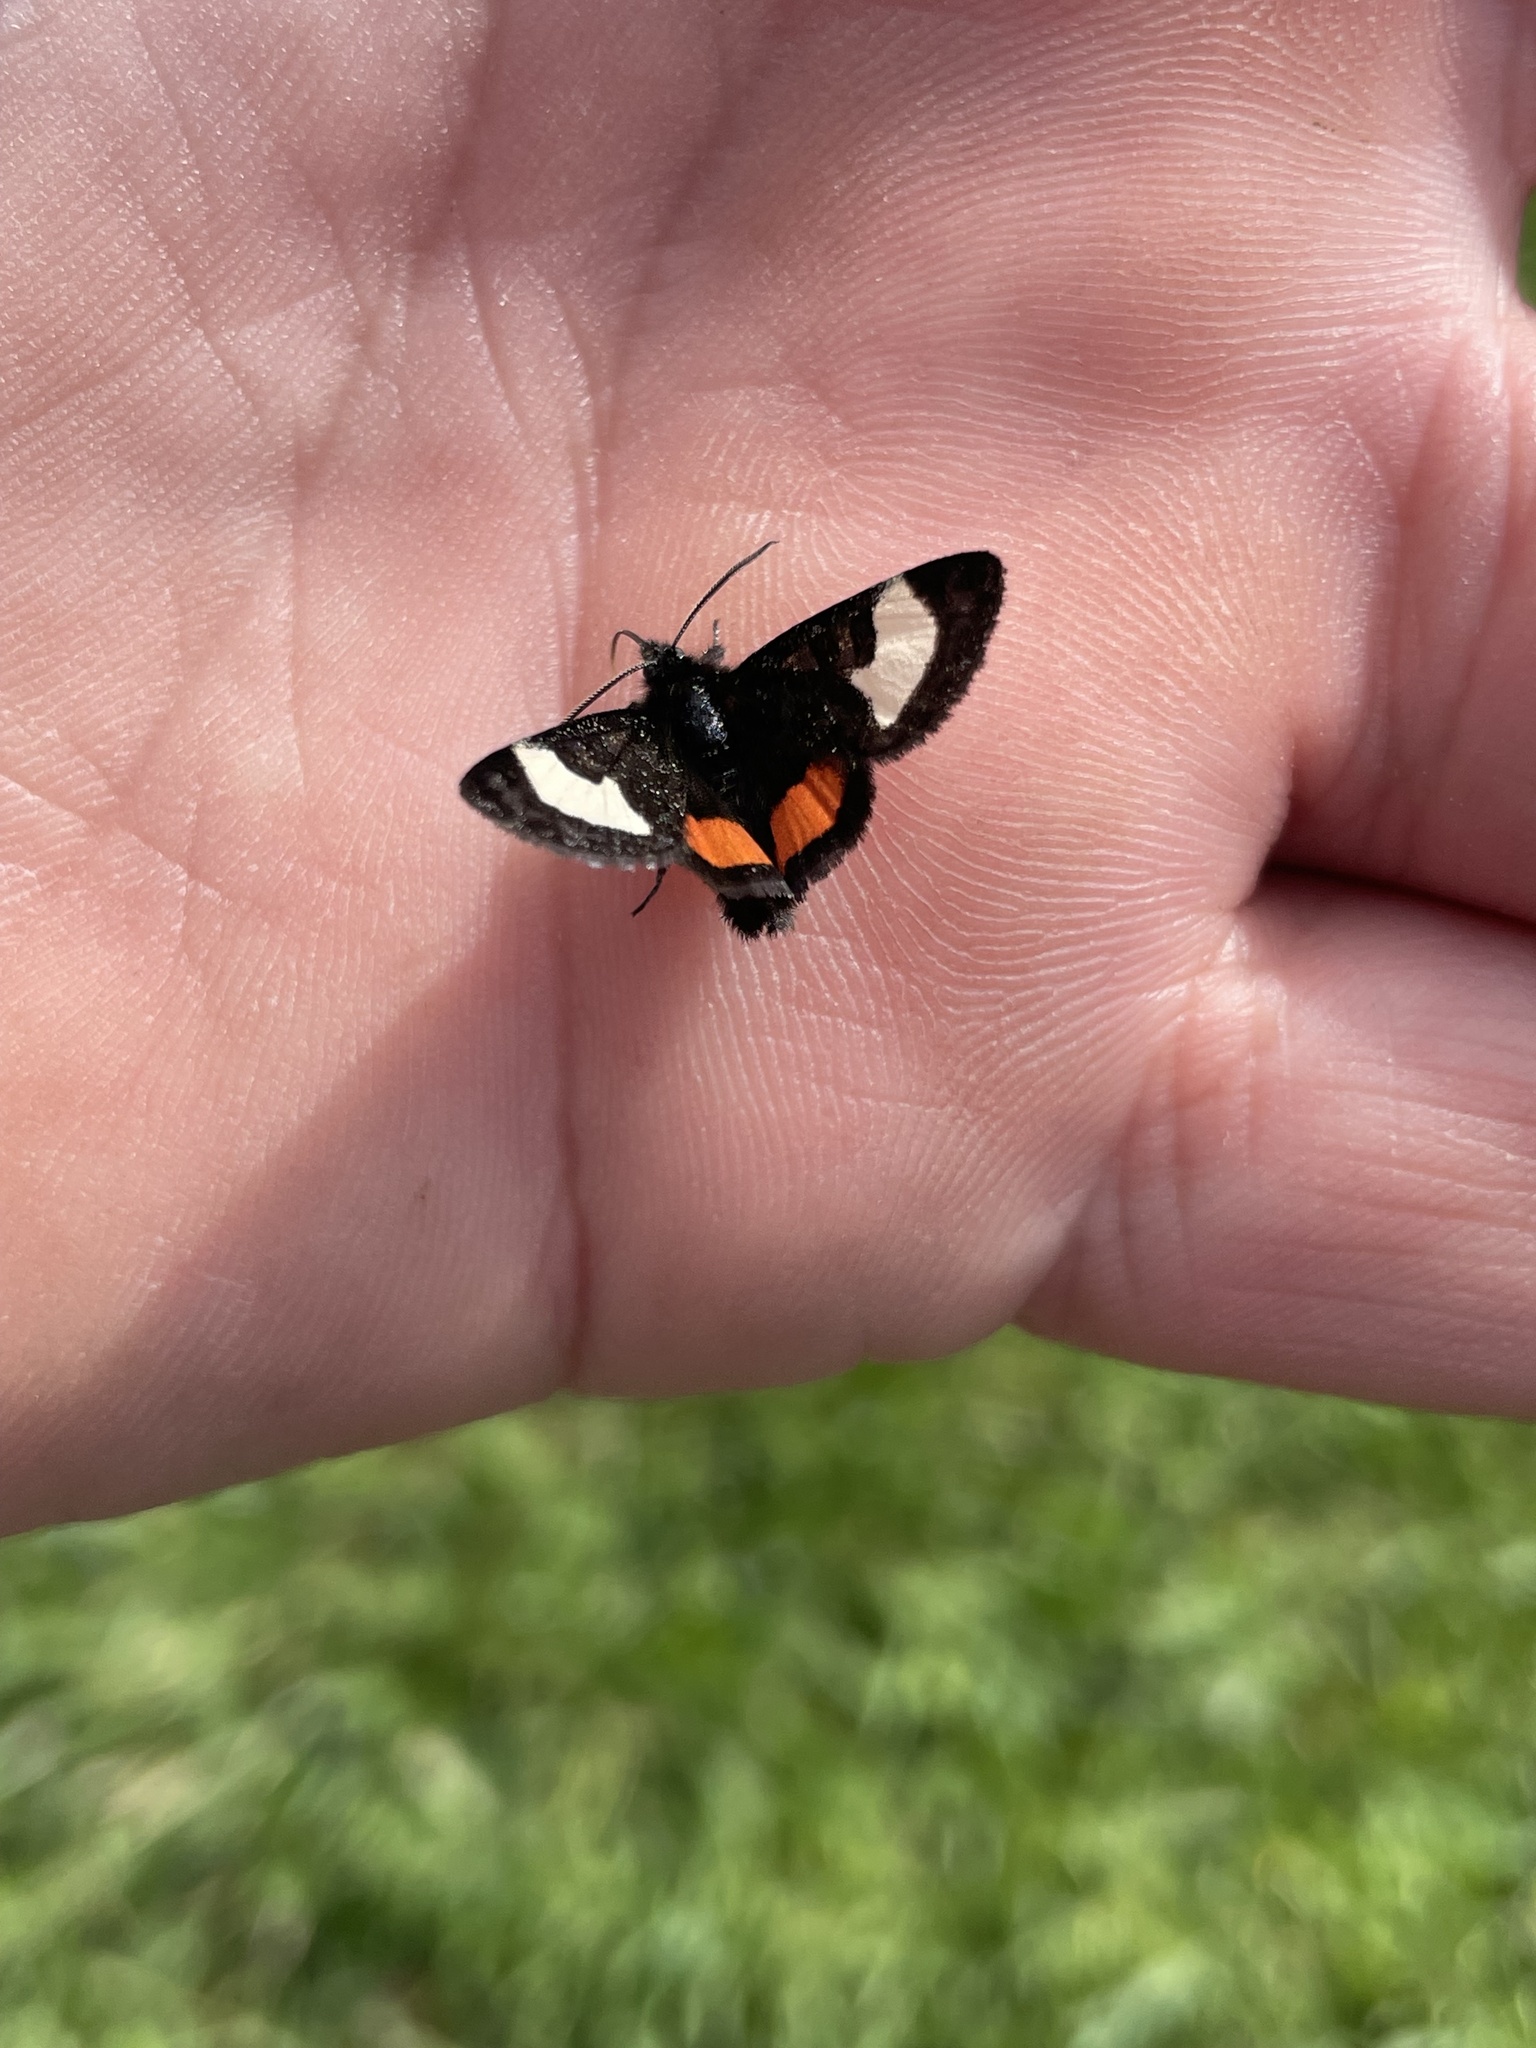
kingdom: Animalia
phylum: Arthropoda
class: Insecta
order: Lepidoptera
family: Noctuidae
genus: Psychomorpha
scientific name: Psychomorpha epimenis
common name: Grapevine epimenis moth
